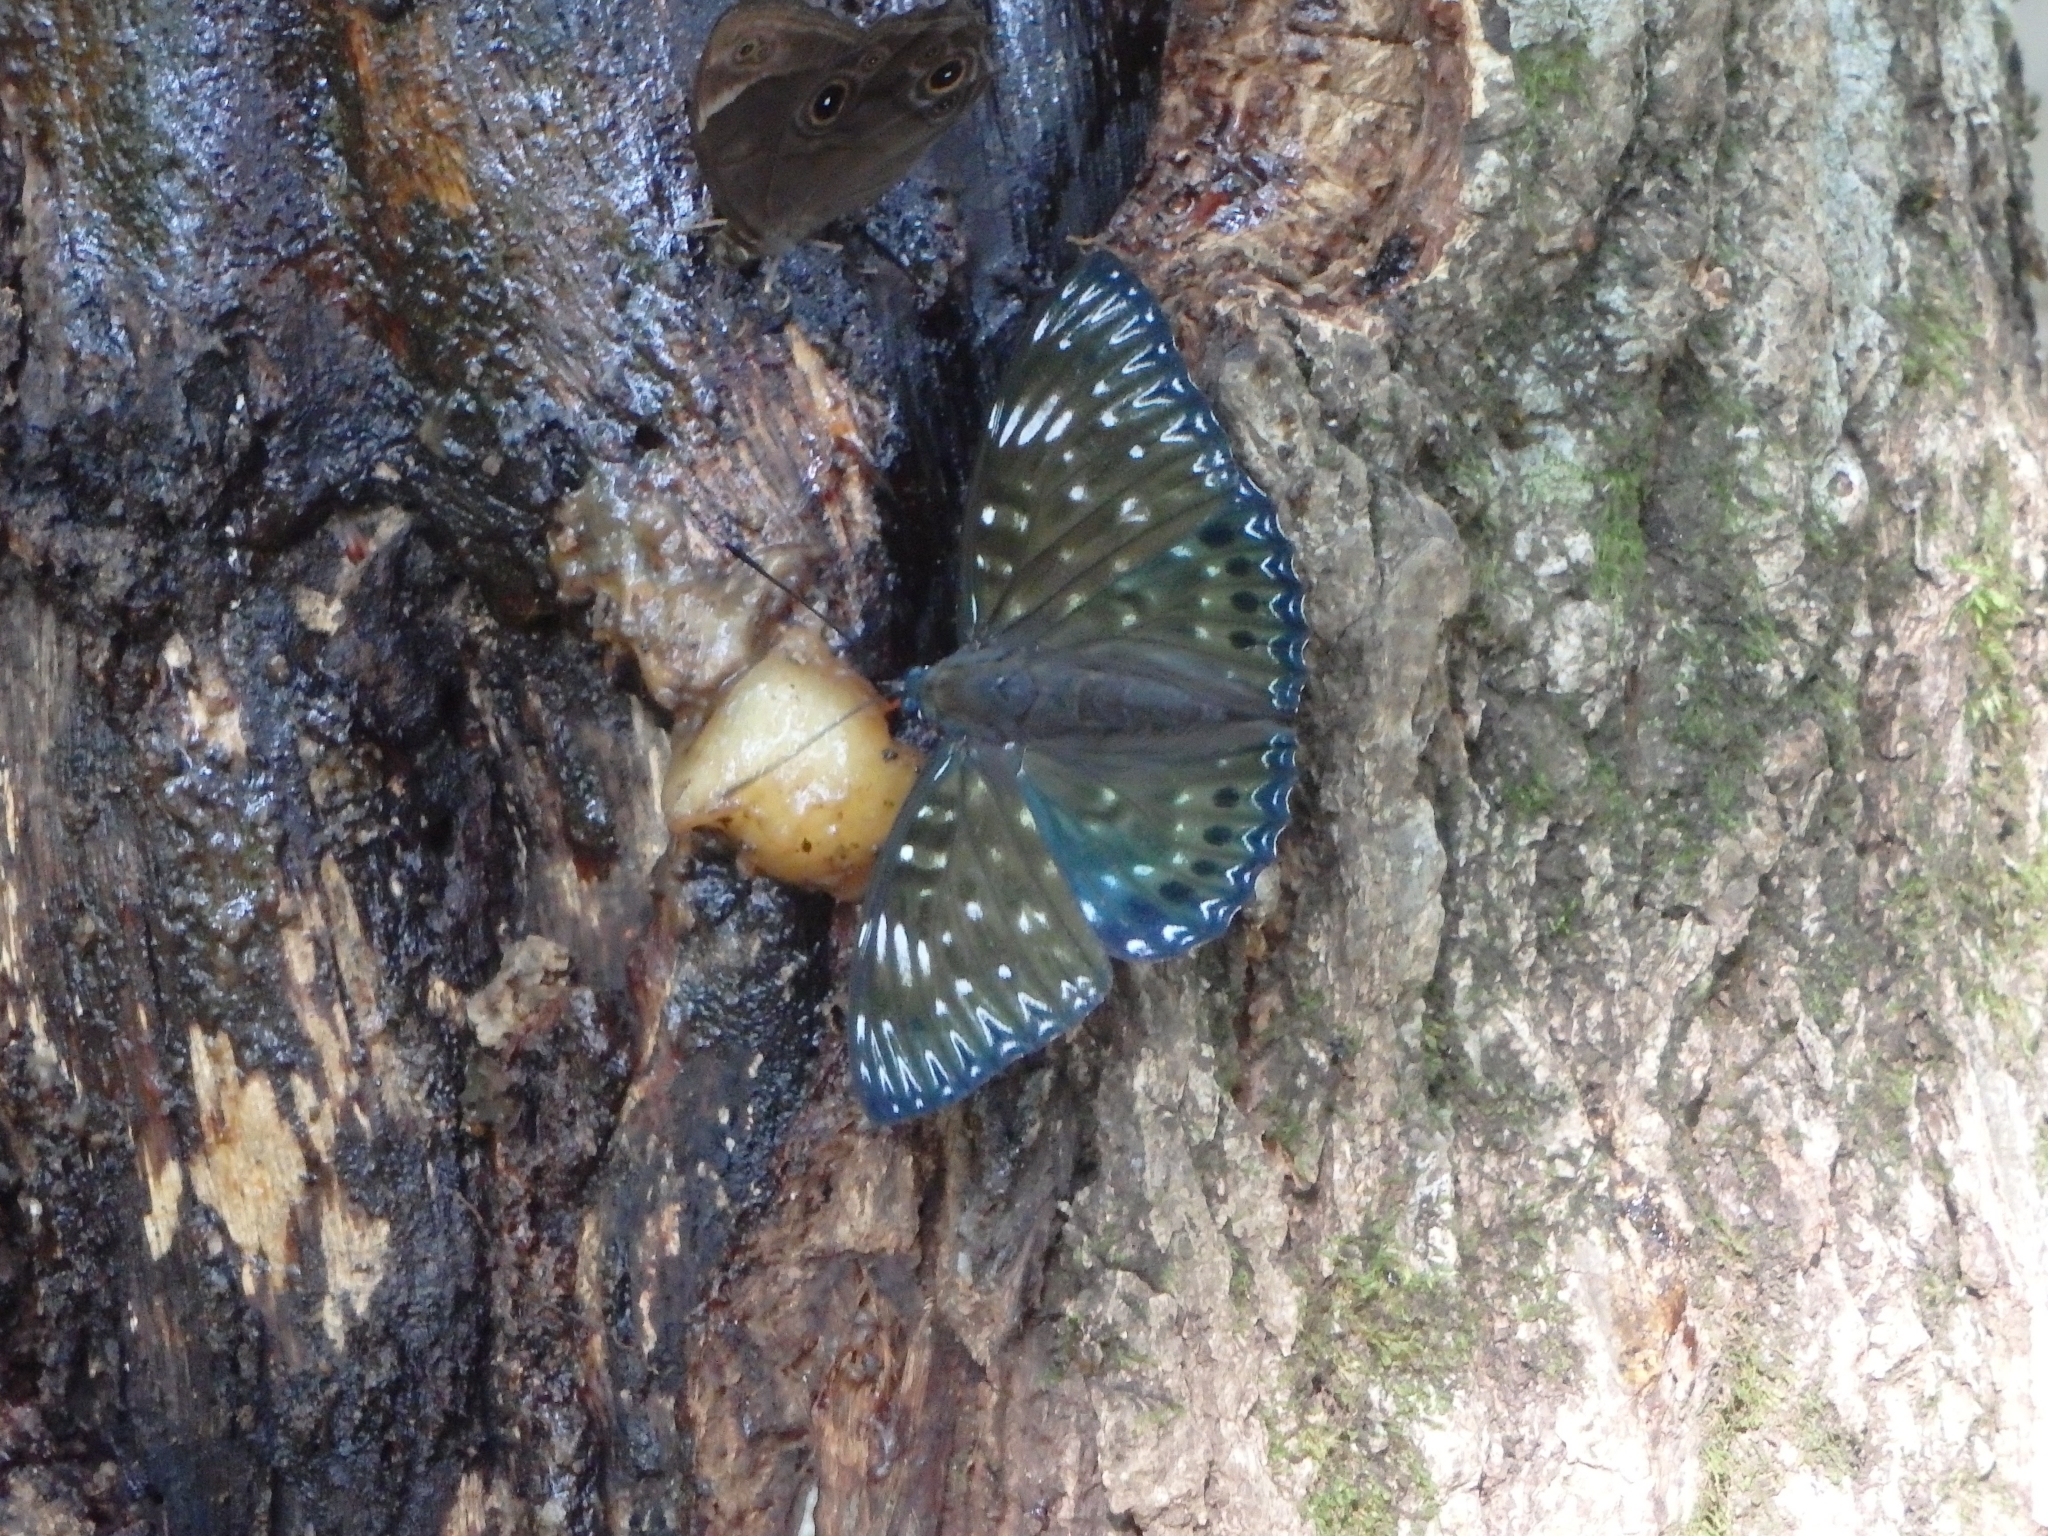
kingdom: Animalia
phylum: Arthropoda
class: Insecta
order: Lepidoptera
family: Nymphalidae
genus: Dichorragia
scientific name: Dichorragia nesimachus
